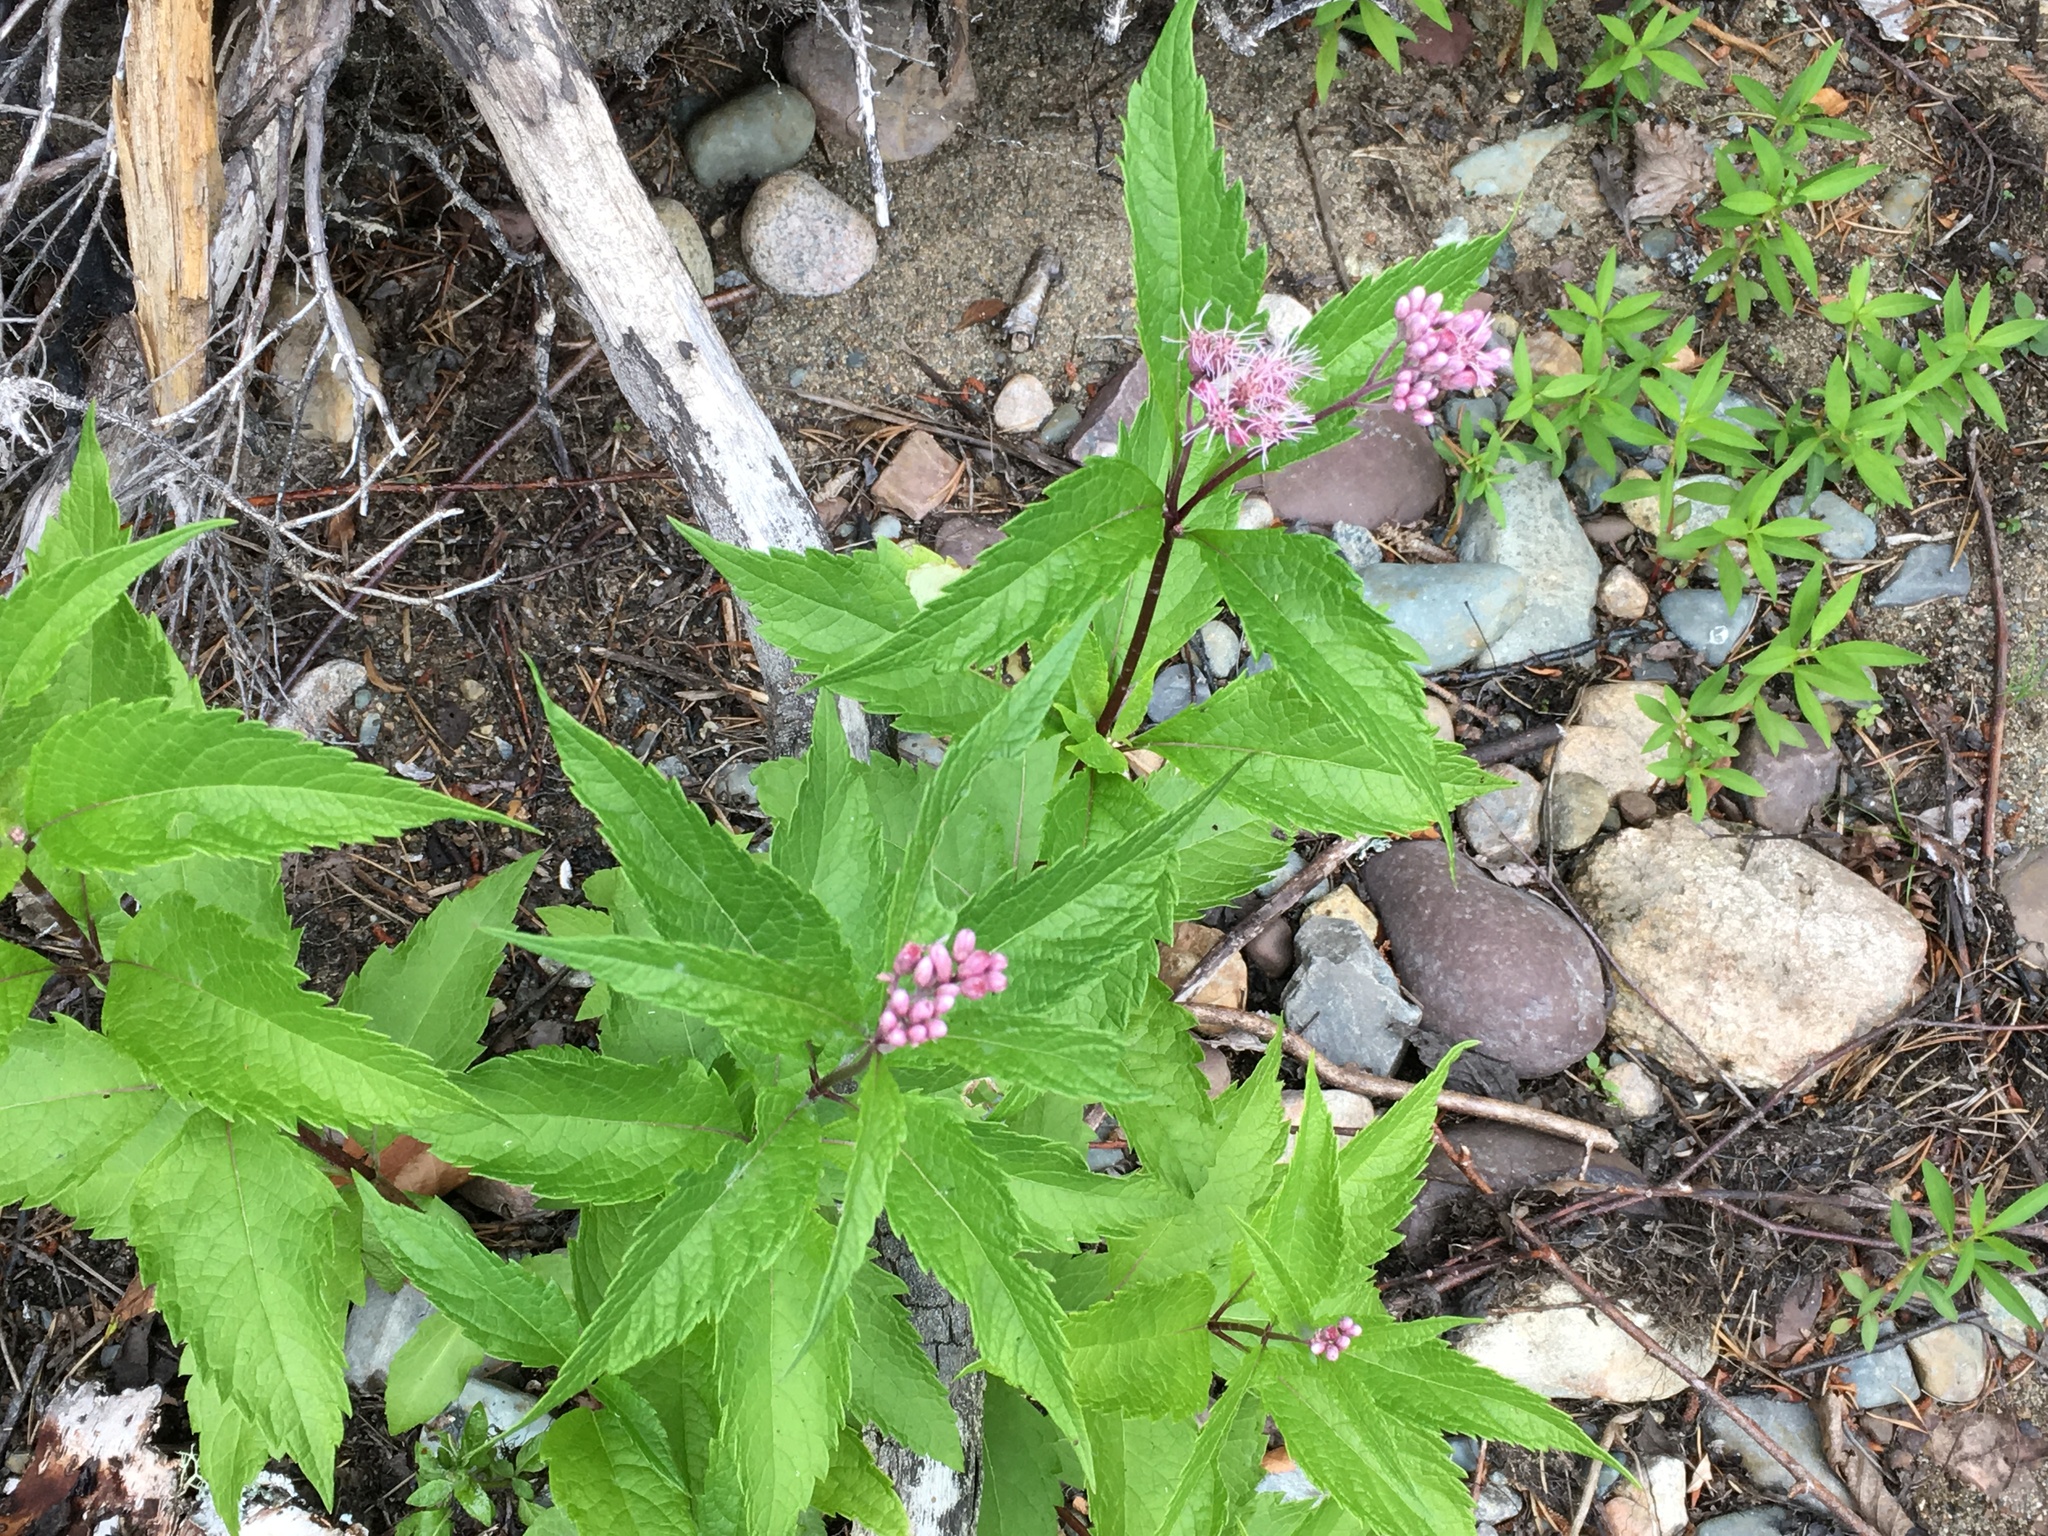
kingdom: Plantae
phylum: Tracheophyta
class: Magnoliopsida
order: Asterales
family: Asteraceae
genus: Eutrochium
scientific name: Eutrochium maculatum
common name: Spotted joe pye weed
